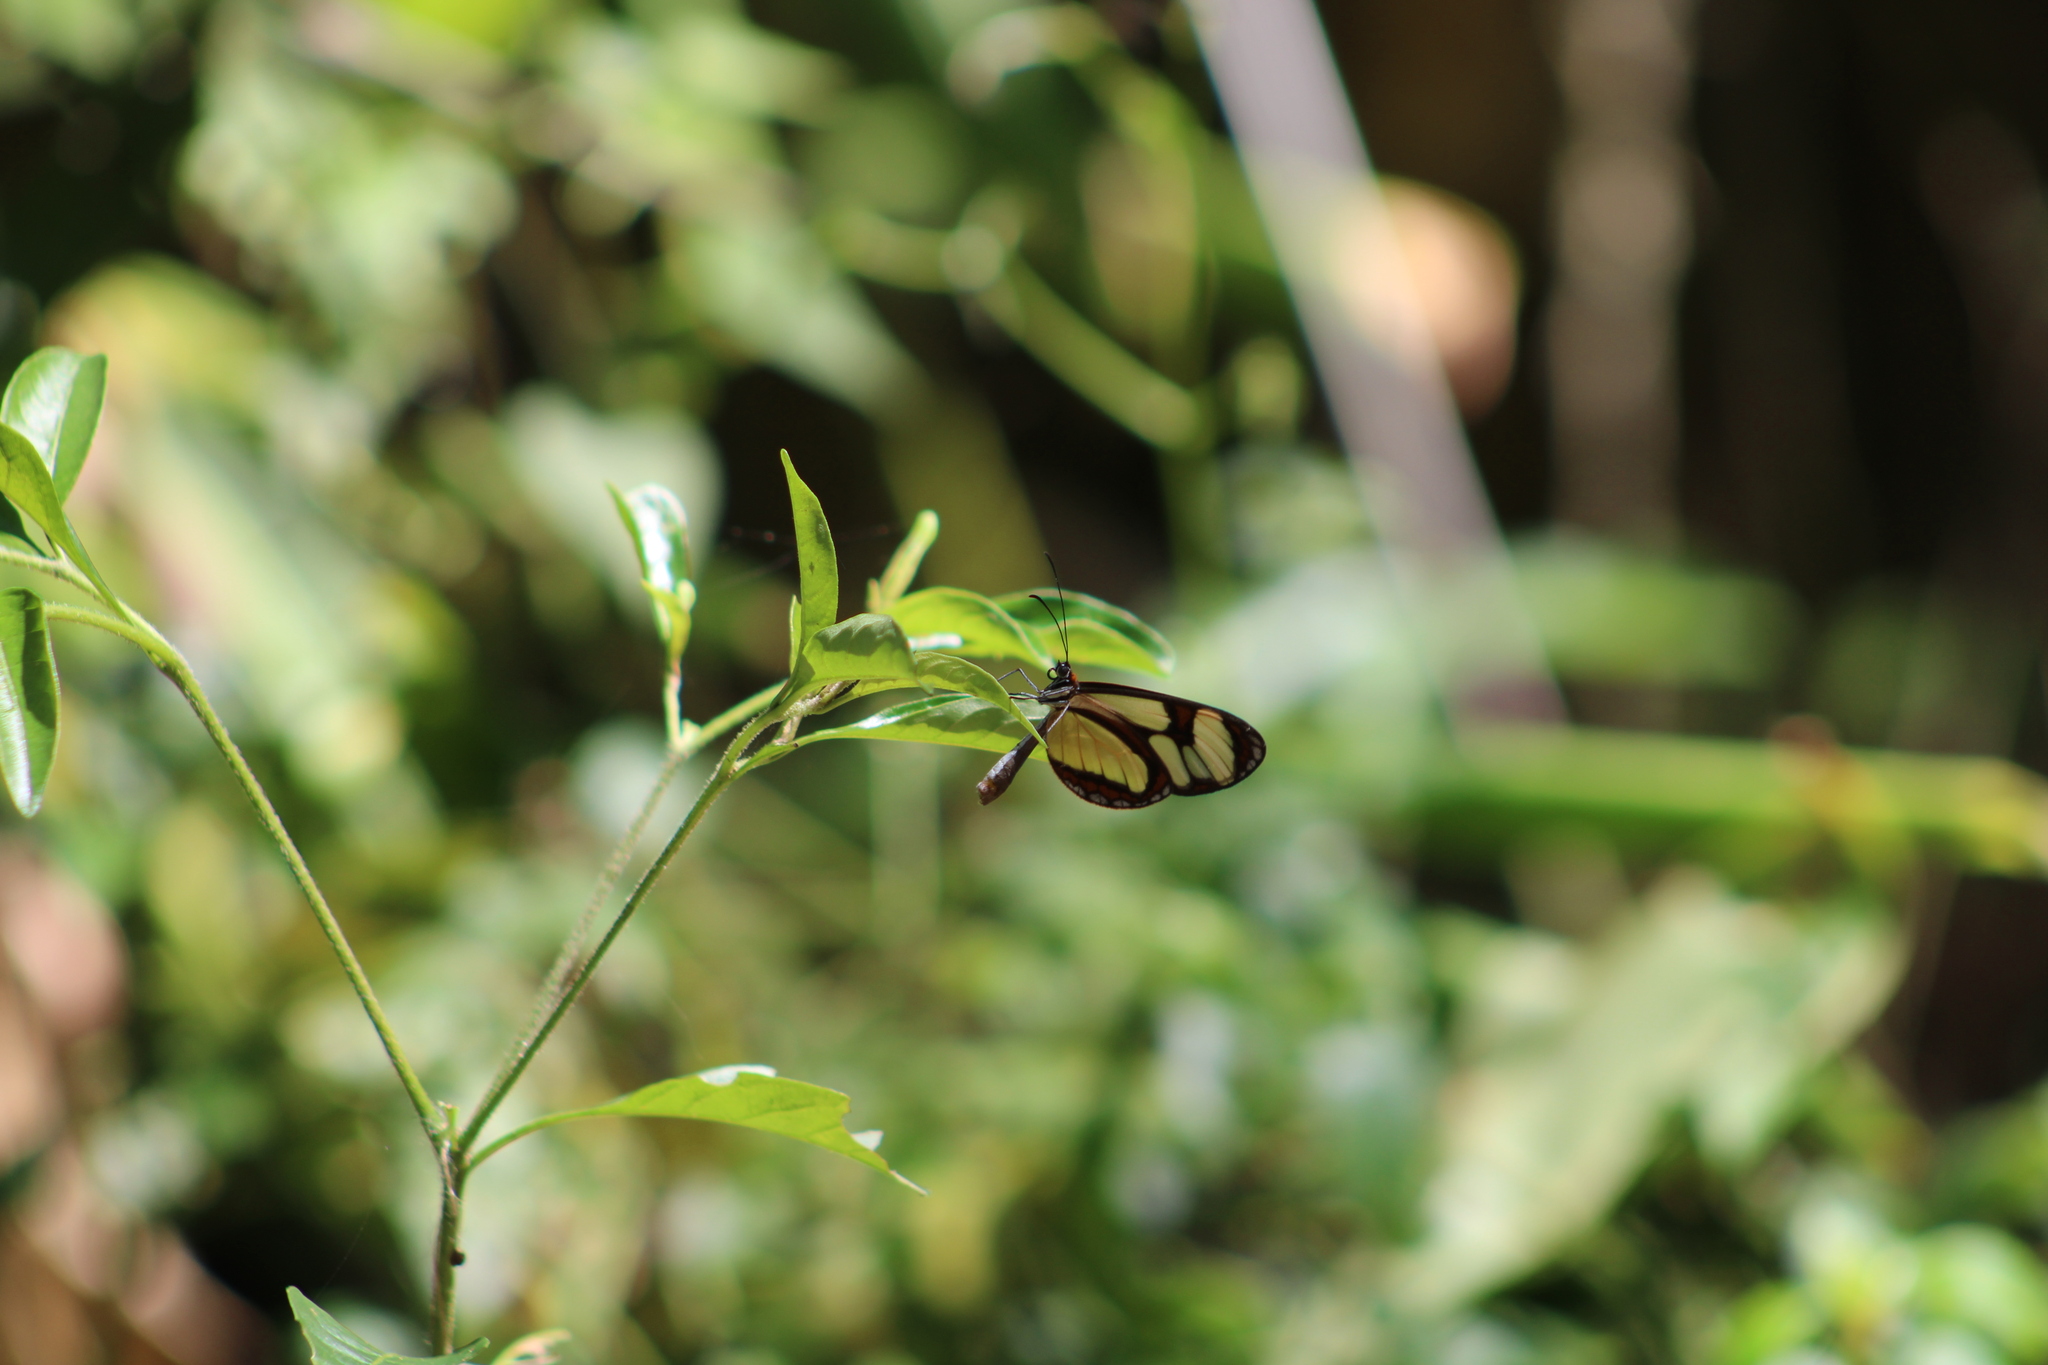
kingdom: Animalia
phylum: Arthropoda
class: Insecta
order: Lepidoptera
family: Nymphalidae
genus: Epityches
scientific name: Epityches eupompe
